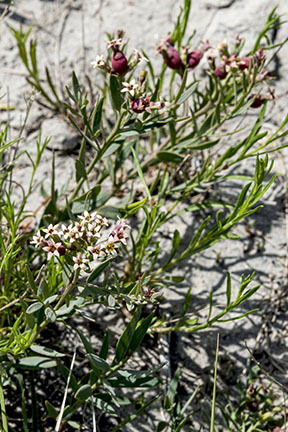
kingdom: Plantae
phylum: Tracheophyta
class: Magnoliopsida
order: Santalales
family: Comandraceae
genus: Comandra
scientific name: Comandra umbellata
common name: Bastard toadflax
